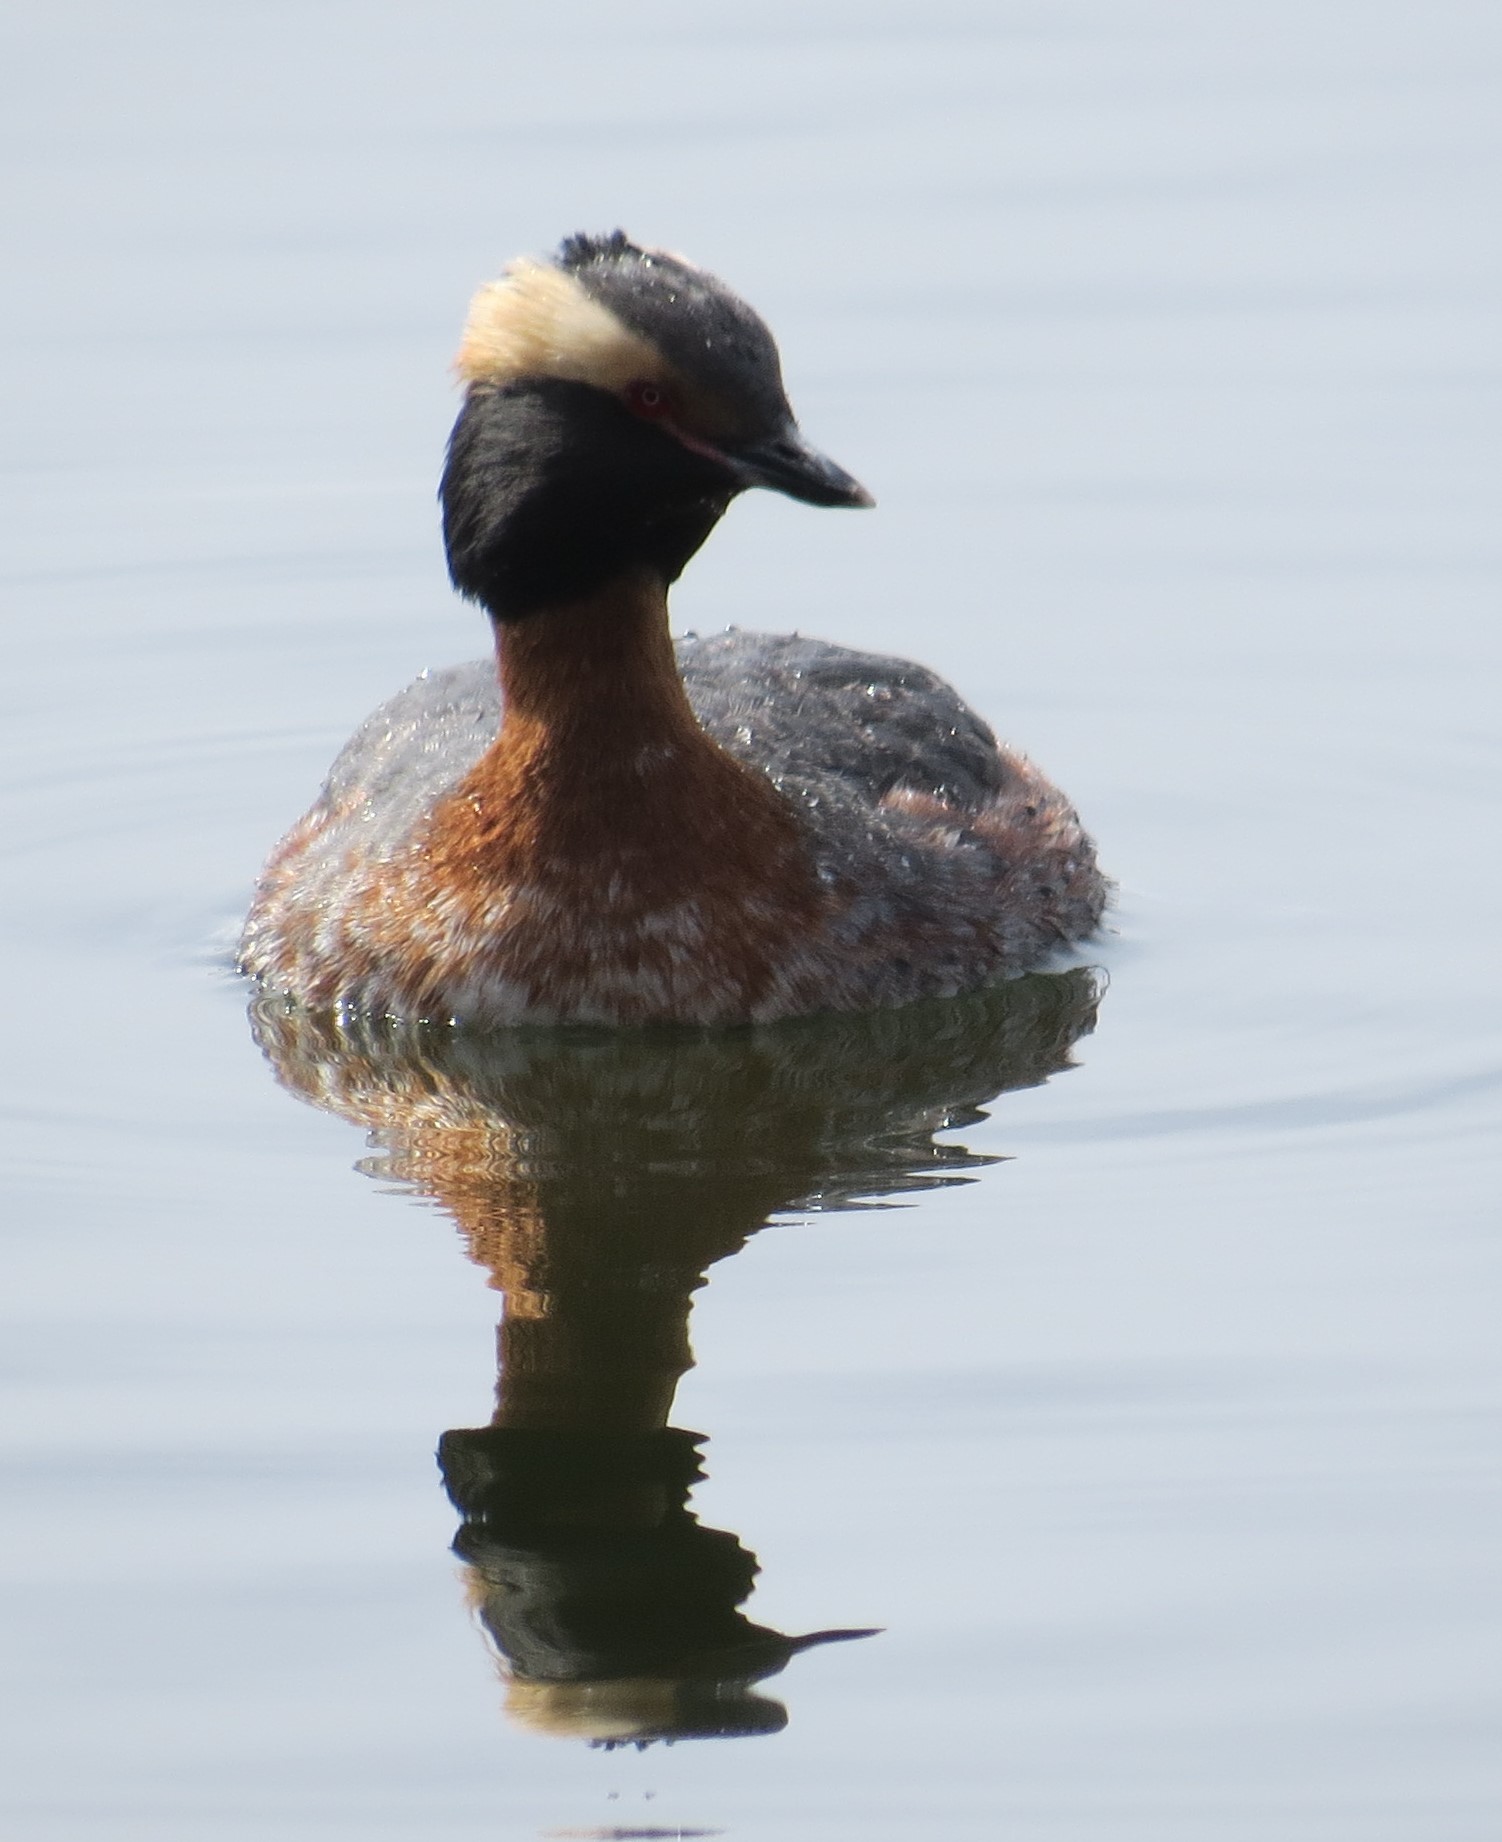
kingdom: Animalia
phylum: Chordata
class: Aves
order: Podicipediformes
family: Podicipedidae
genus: Podiceps
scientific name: Podiceps auritus
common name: Horned grebe
